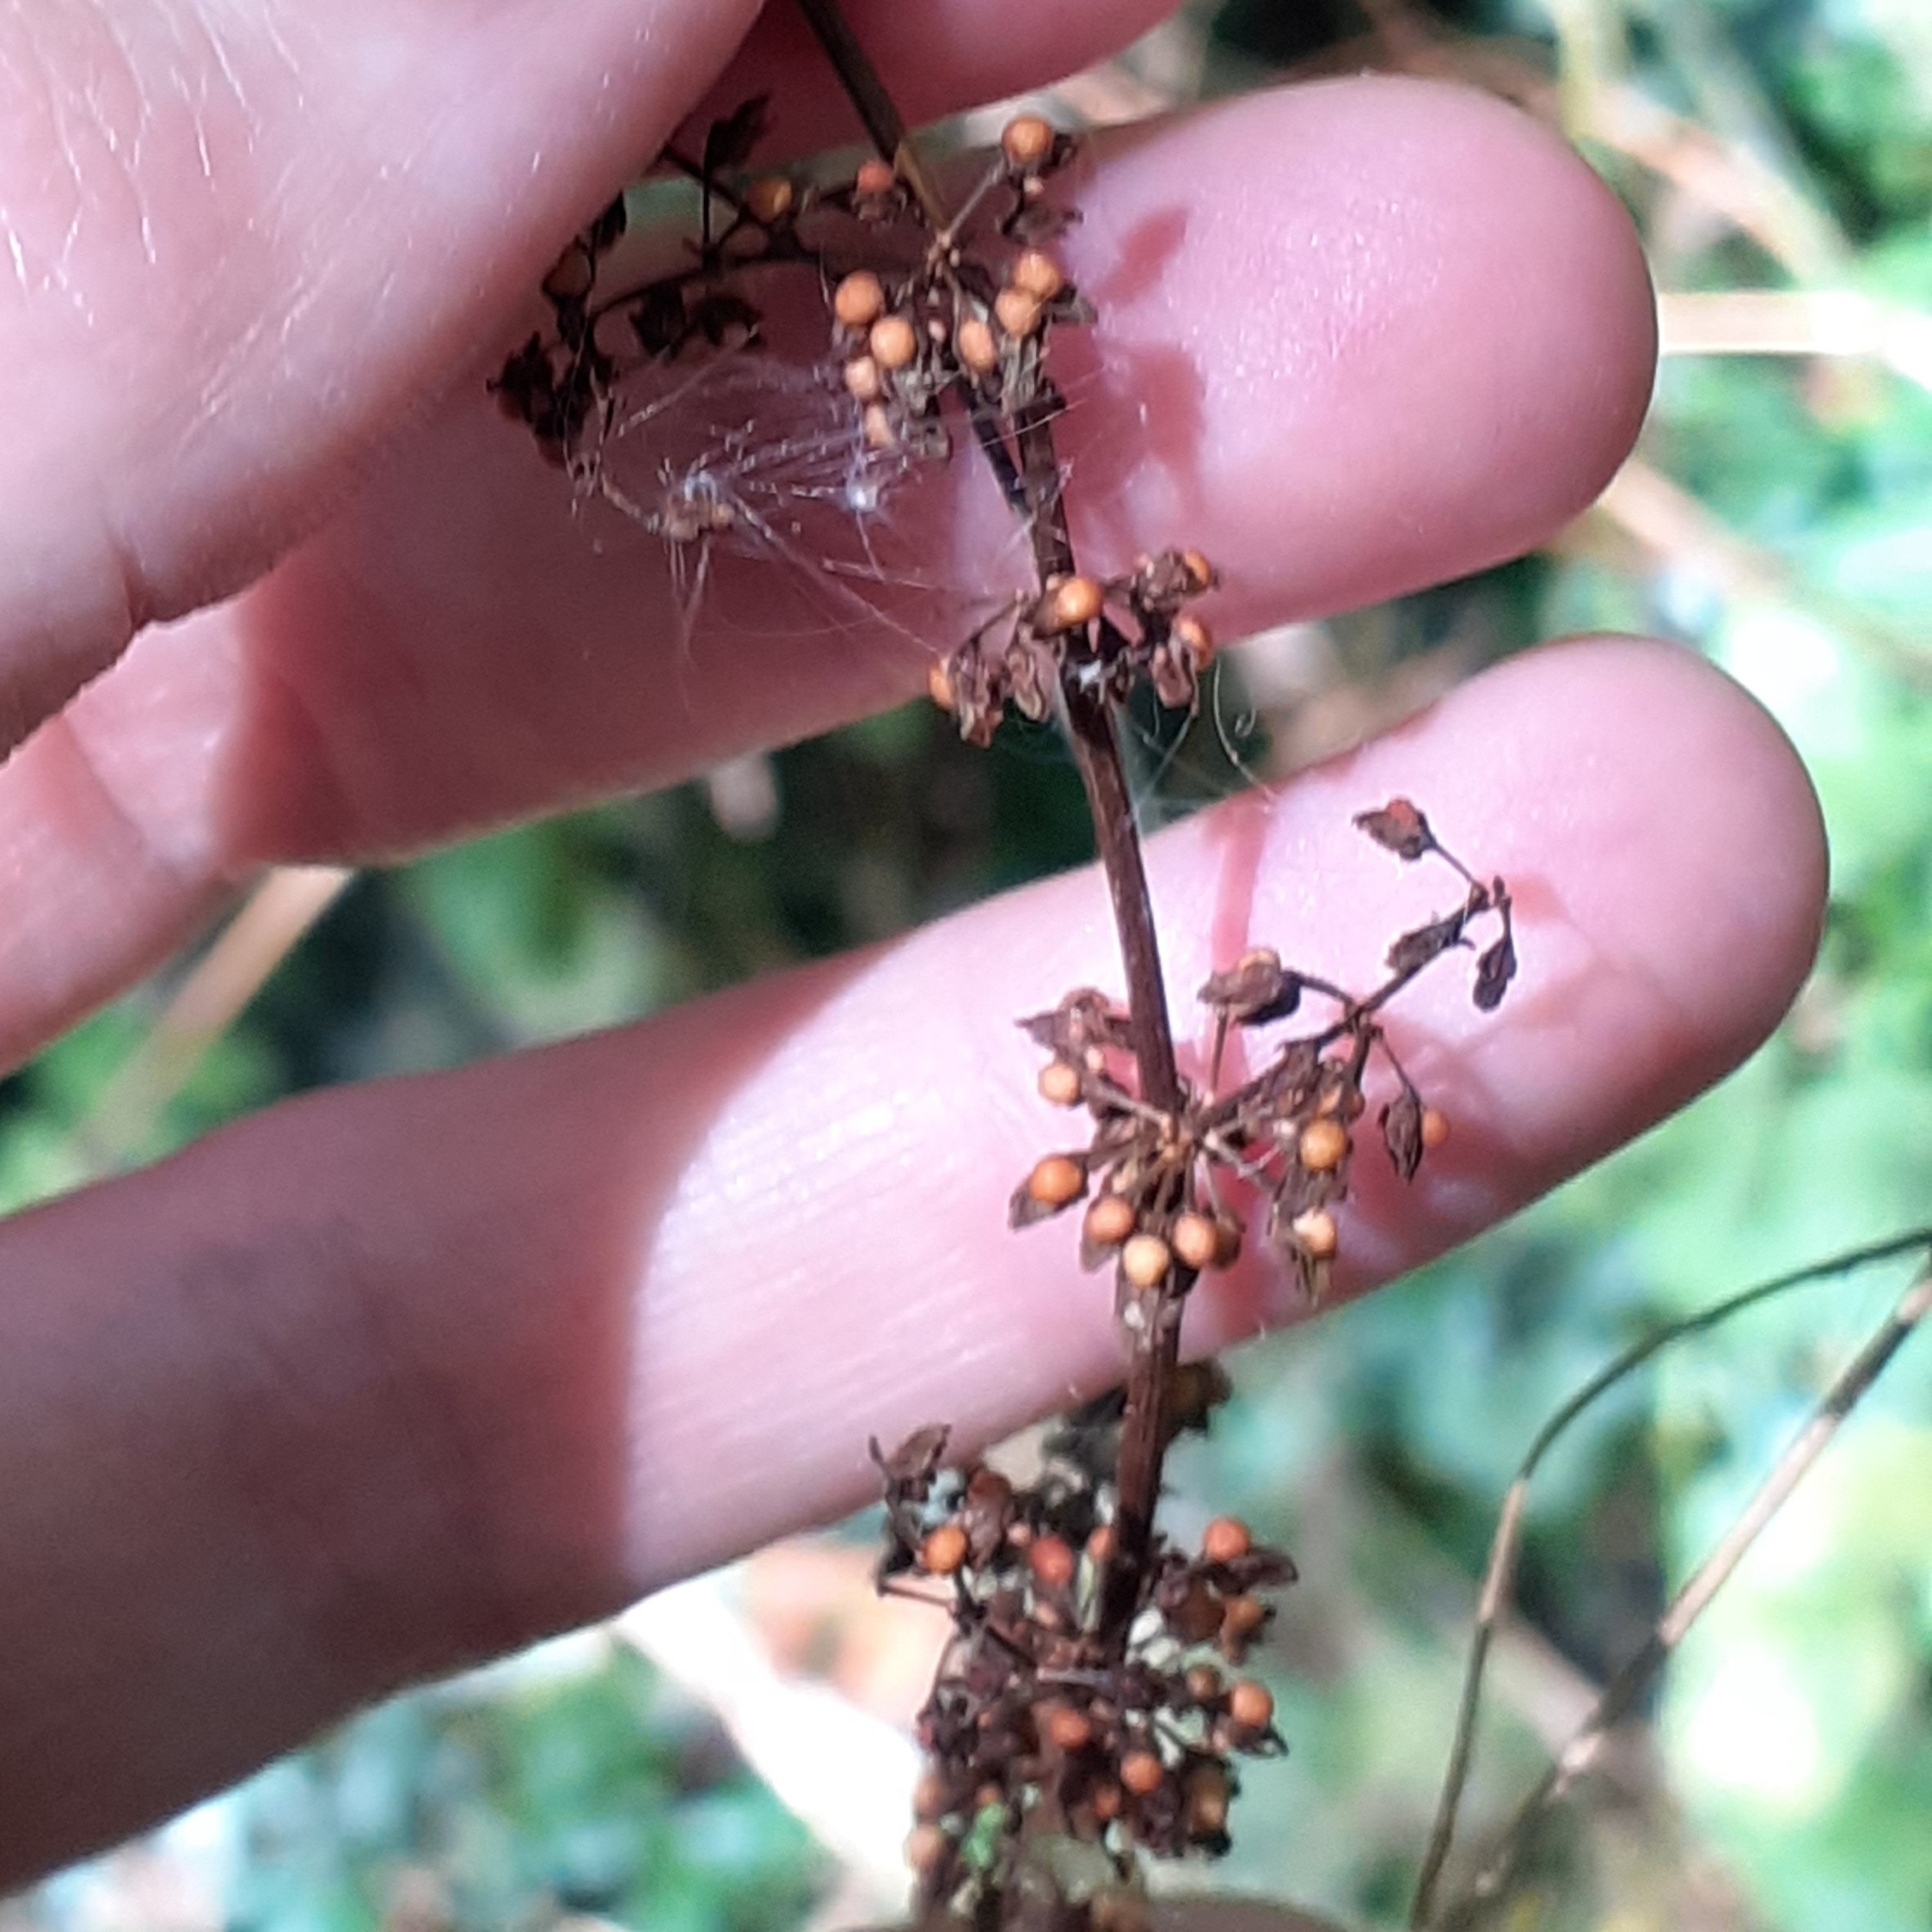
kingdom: Plantae
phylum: Tracheophyta
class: Magnoliopsida
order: Caryophyllales
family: Polygonaceae
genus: Rumex
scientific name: Rumex sanguineus
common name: Wood dock
